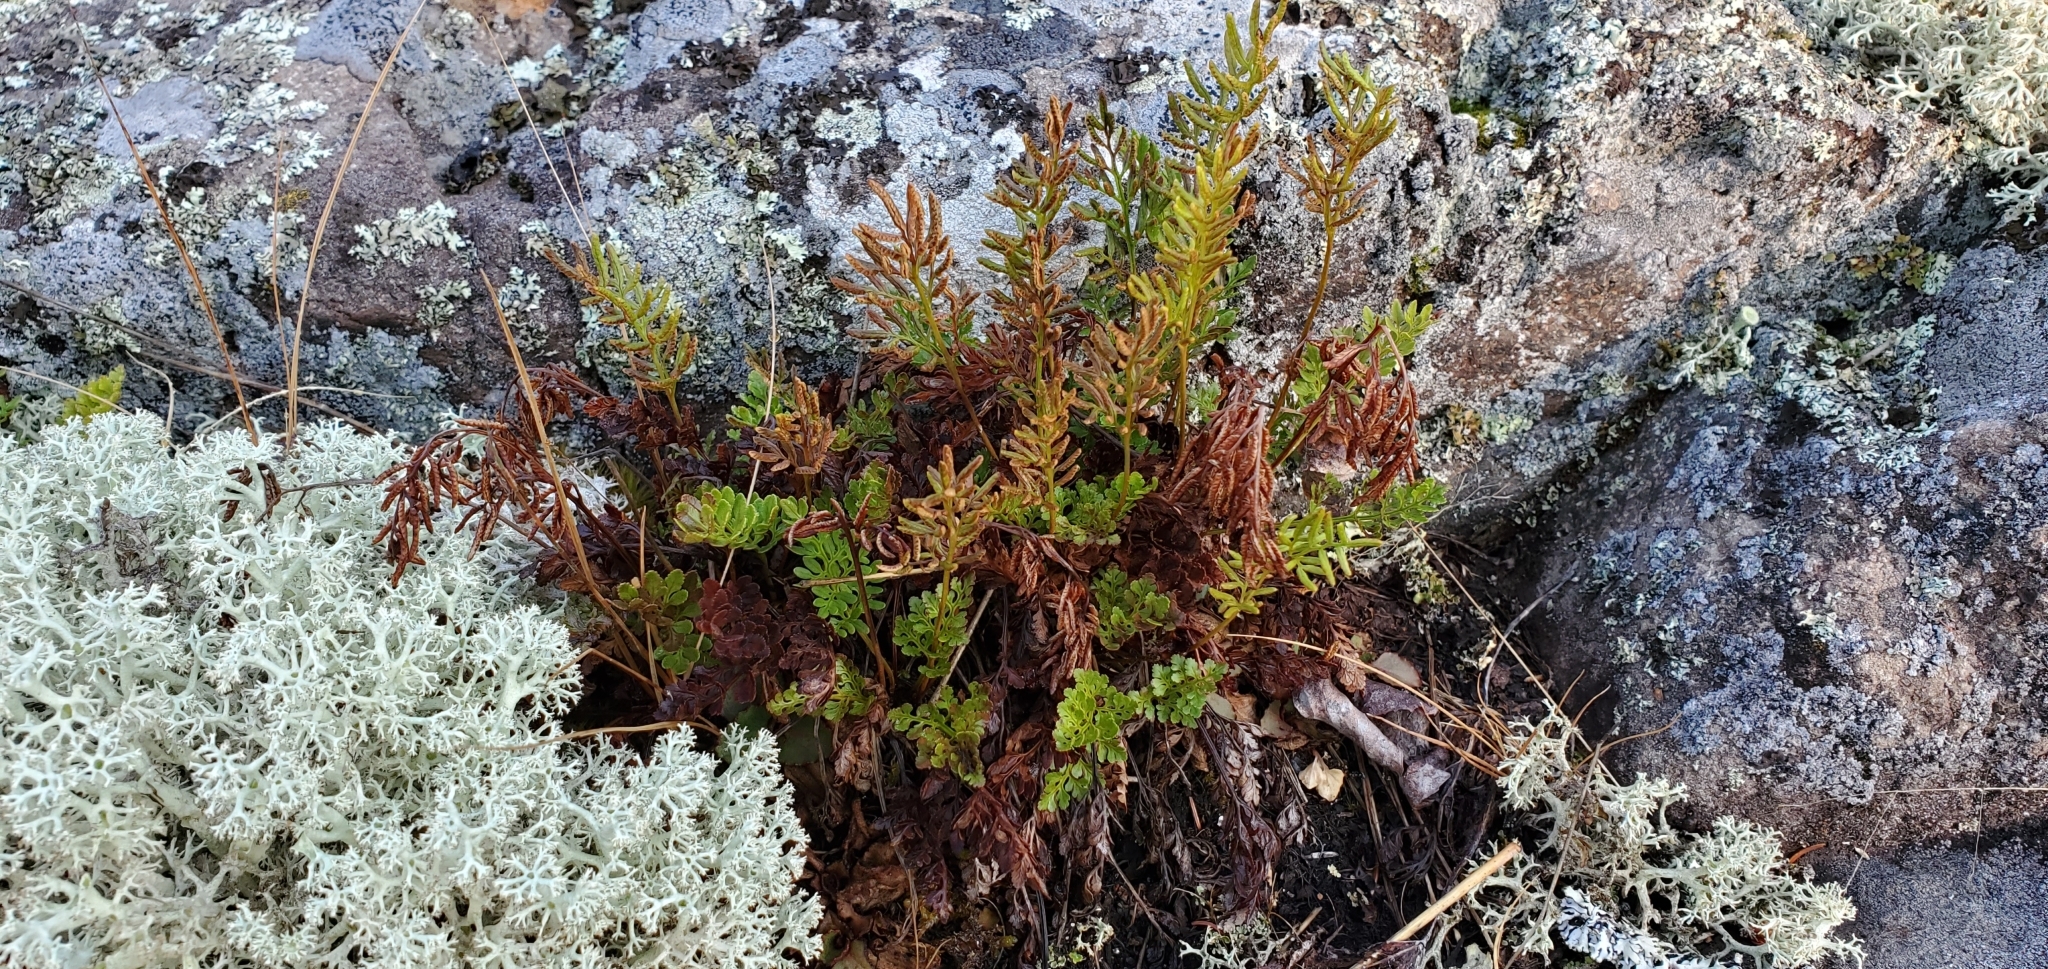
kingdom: Plantae
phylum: Tracheophyta
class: Polypodiopsida
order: Polypodiales
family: Pteridaceae
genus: Cryptogramma
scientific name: Cryptogramma acrostichoides
